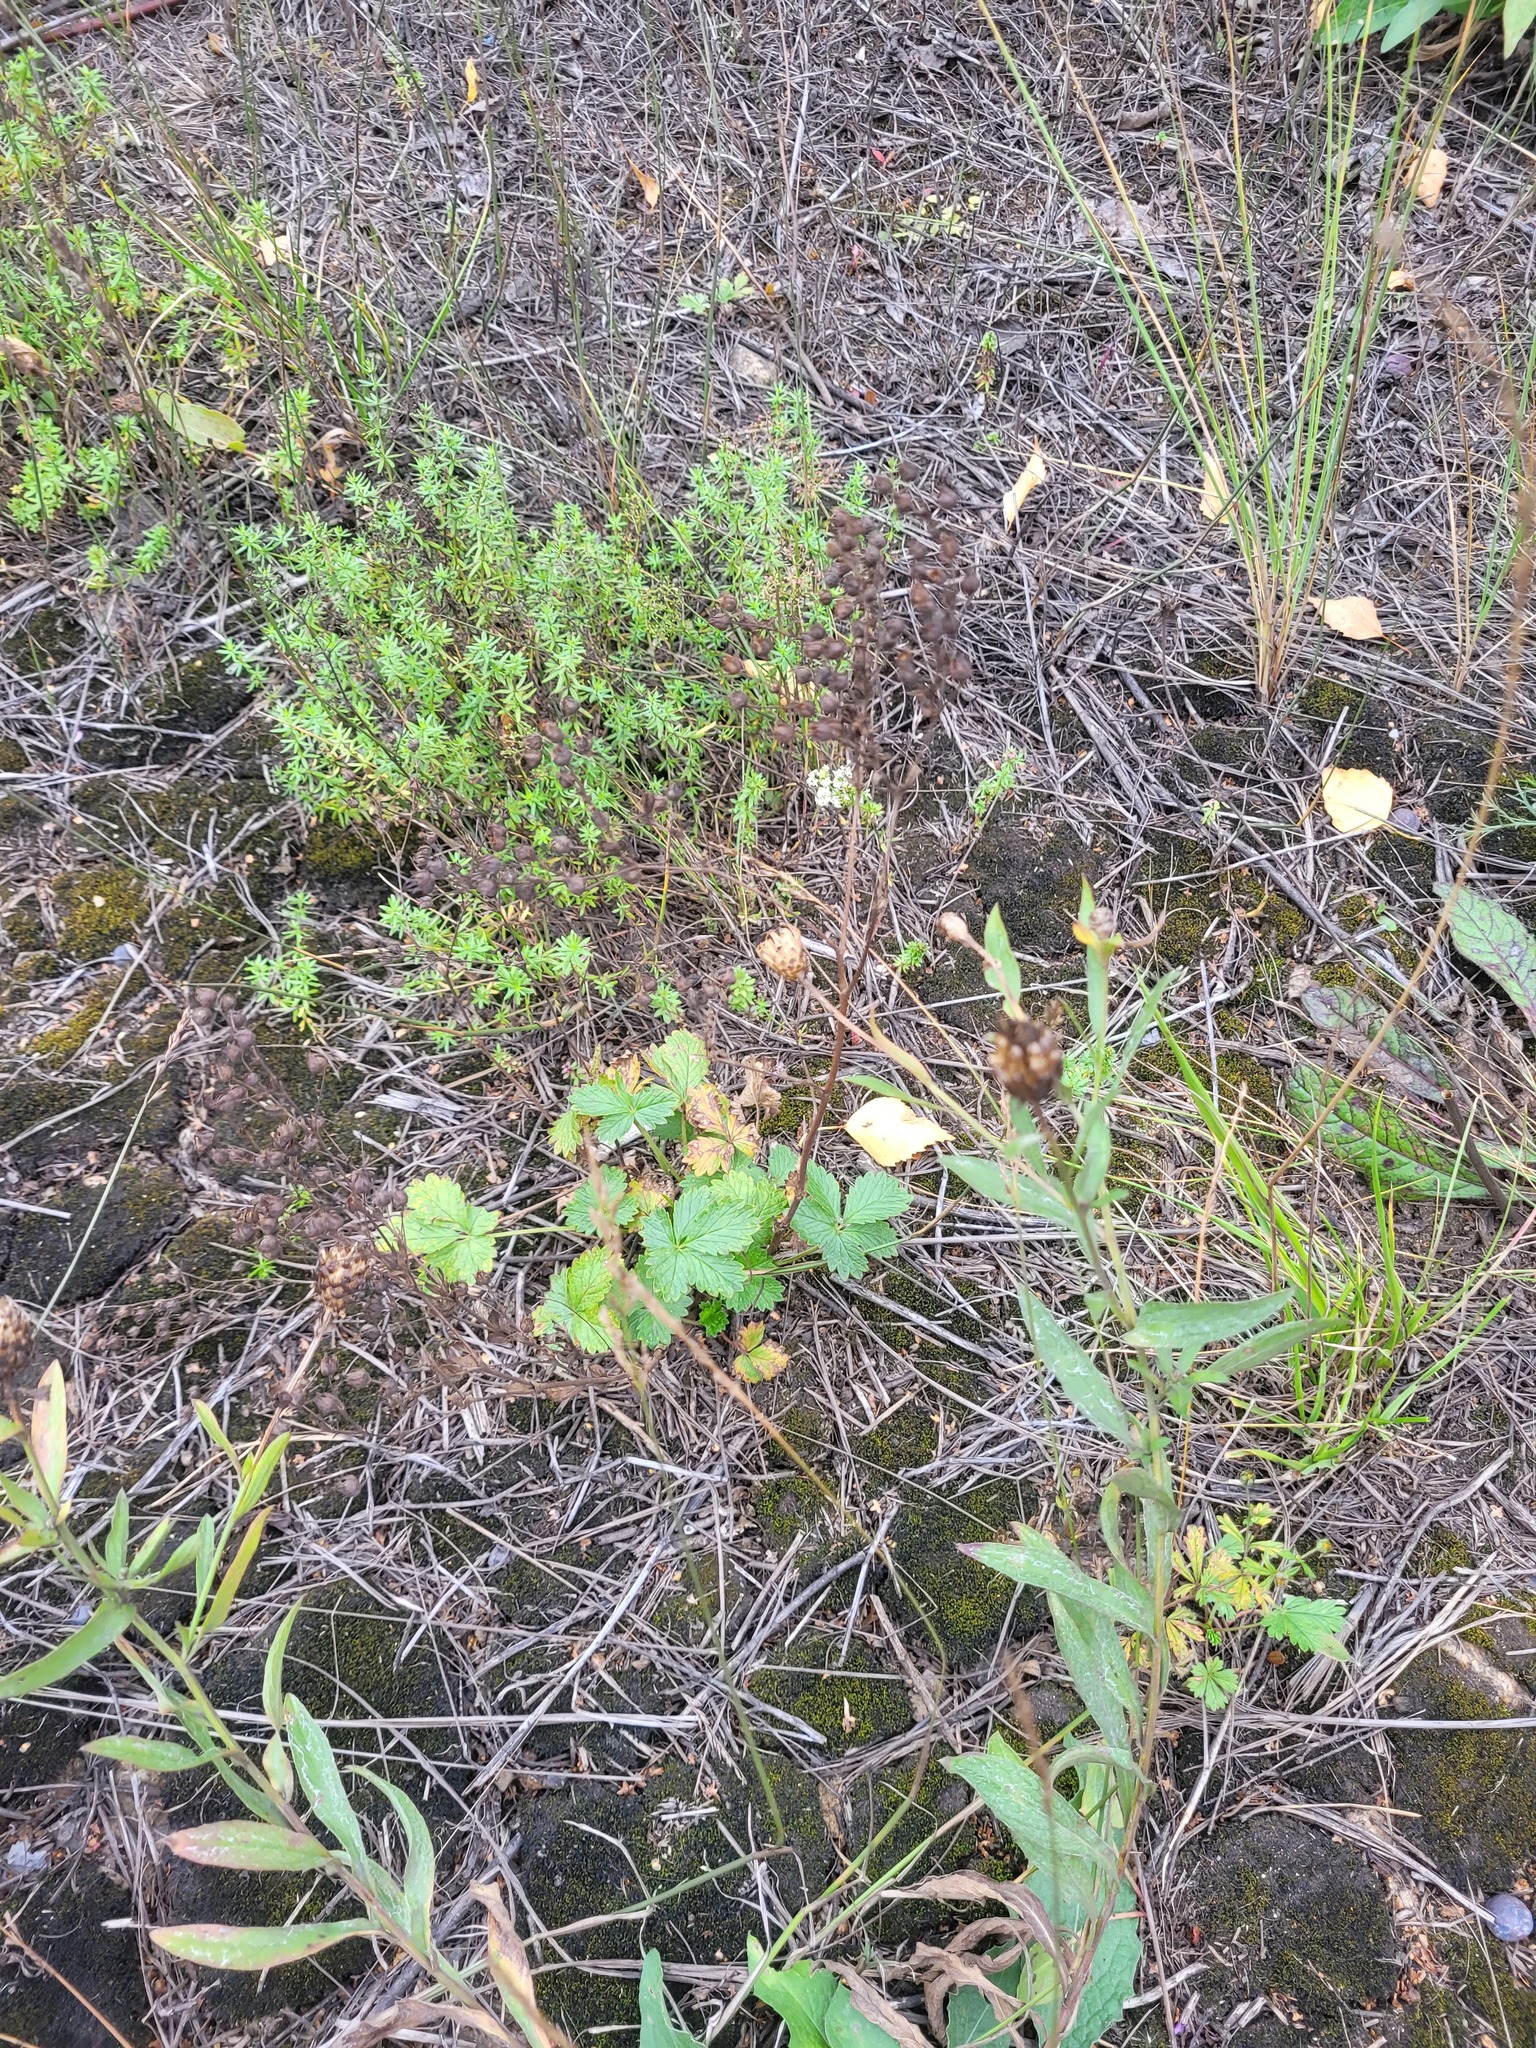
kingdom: Plantae
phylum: Tracheophyta
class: Magnoliopsida
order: Rosales
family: Rosaceae
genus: Potentilla
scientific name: Potentilla intermedia
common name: Downy cinquefoil
